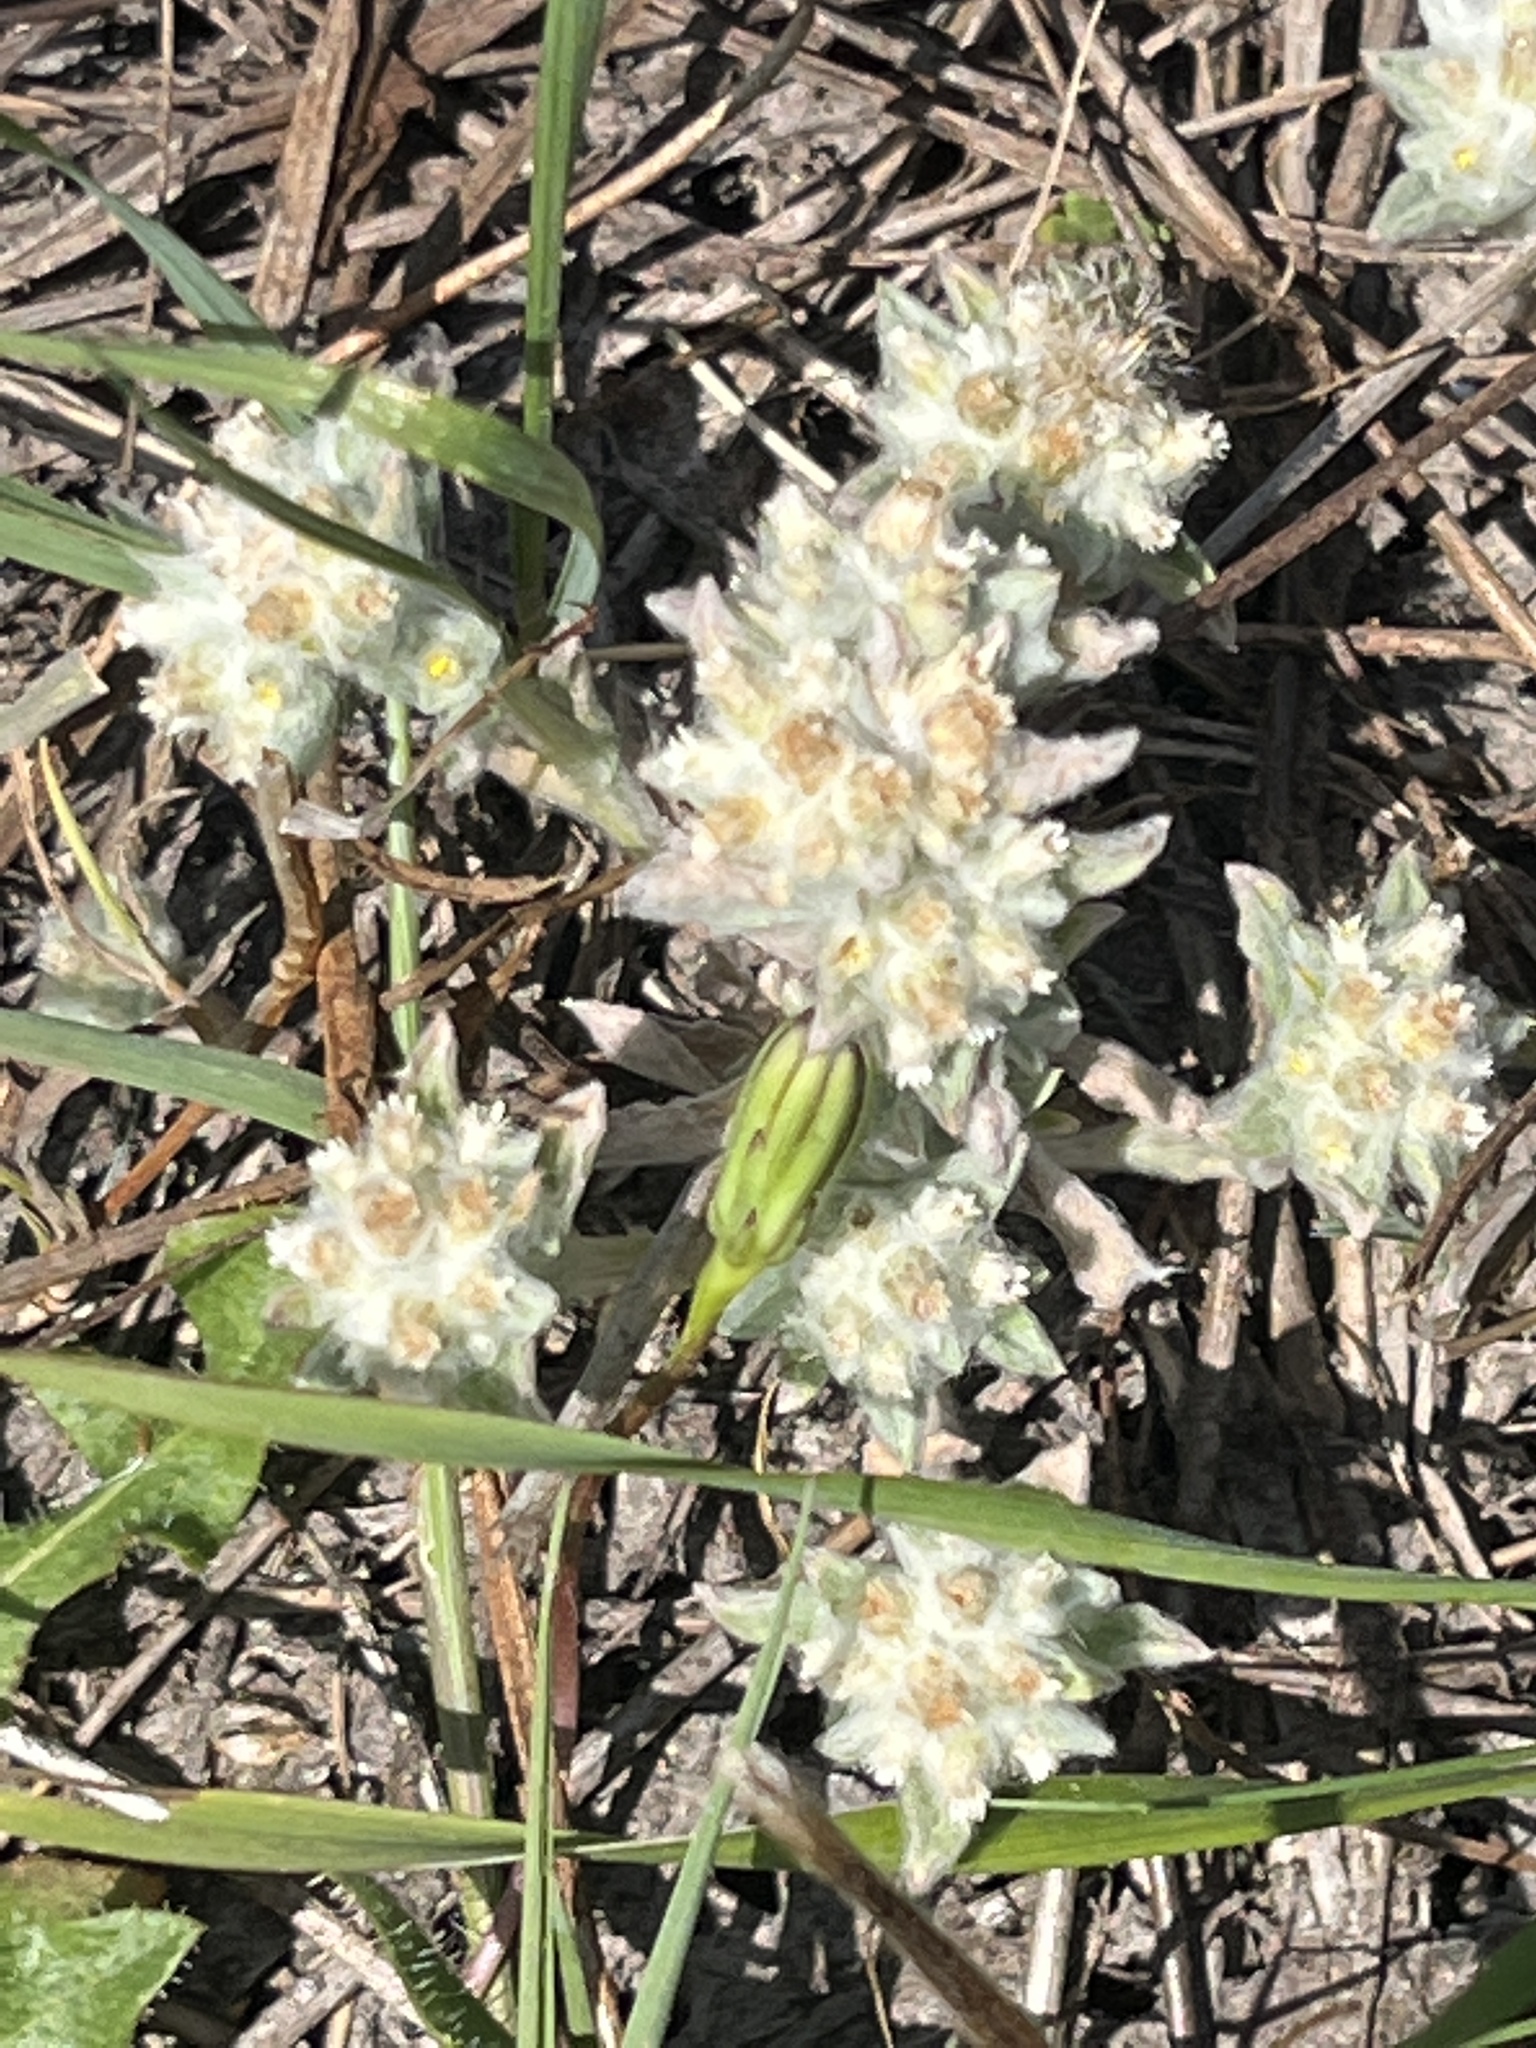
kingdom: Plantae
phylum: Tracheophyta
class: Magnoliopsida
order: Asterales
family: Asteraceae
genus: Gnaphalium
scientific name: Gnaphalium palustre
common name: Western marsh cudweed
